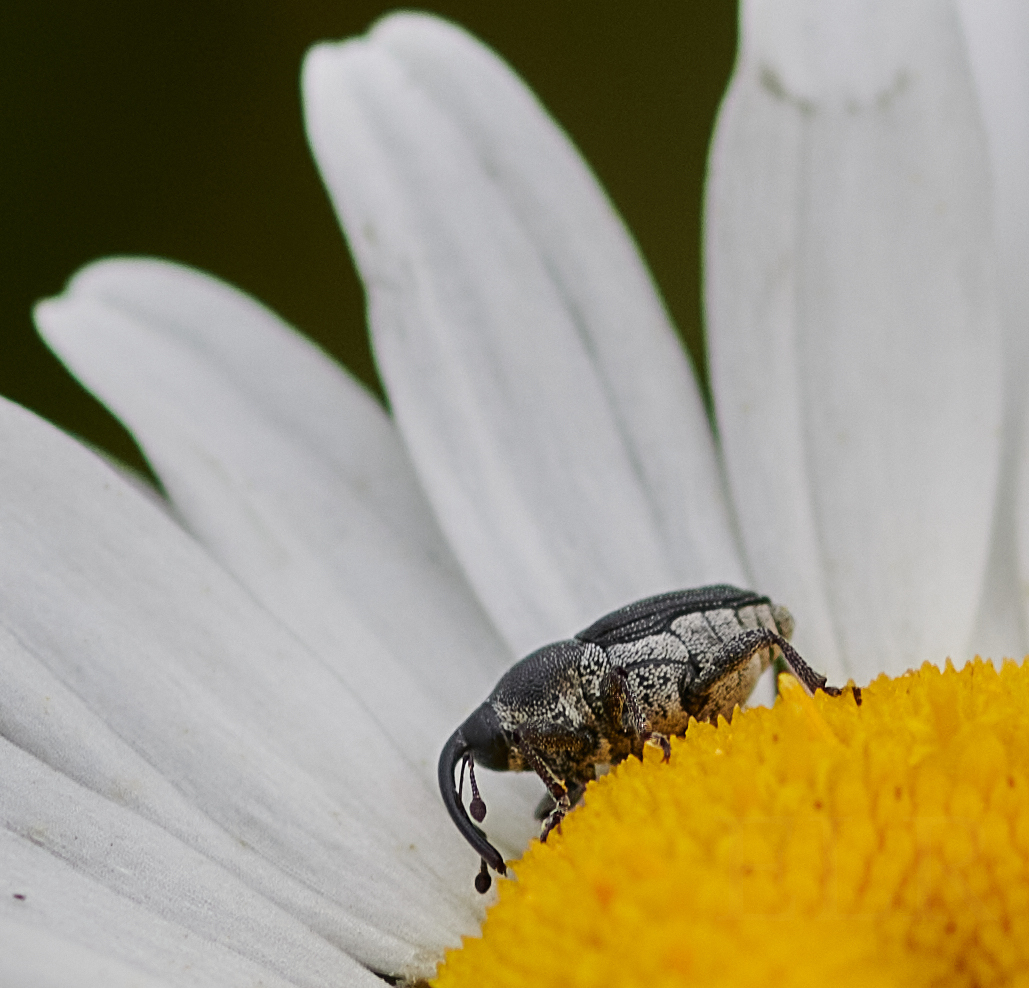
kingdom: Animalia
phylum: Arthropoda
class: Insecta
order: Coleoptera
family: Curculionidae
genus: Odontocorynus
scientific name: Odontocorynus salebrosus
